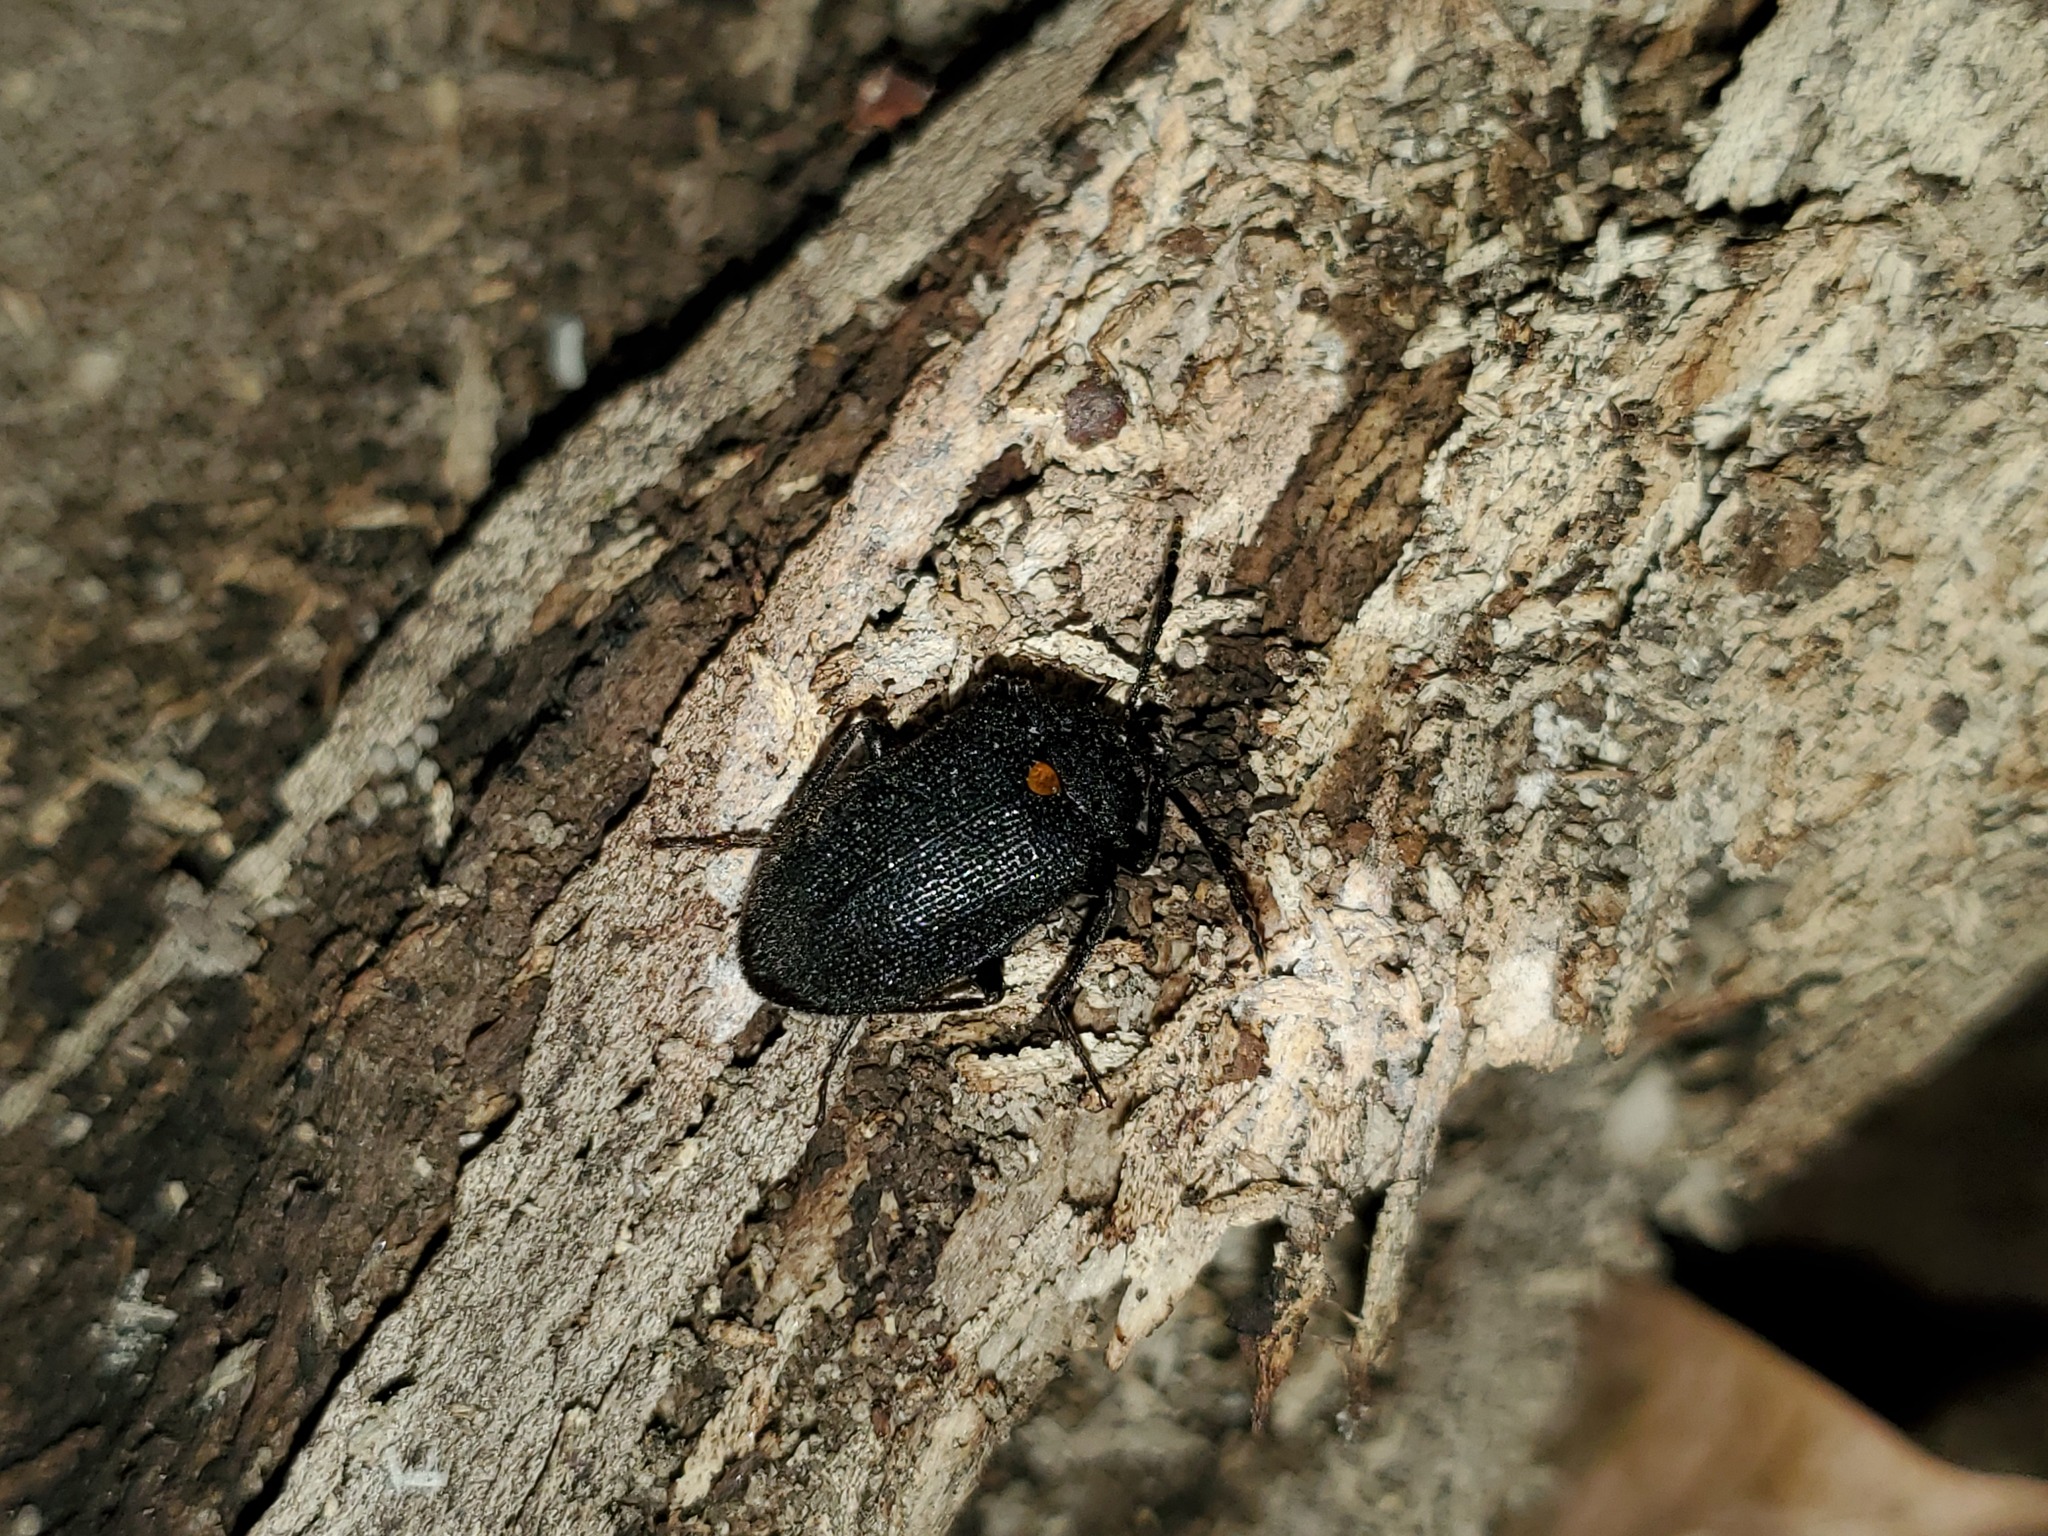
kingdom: Animalia
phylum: Arthropoda
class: Insecta
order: Coleoptera
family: Tetratomidae
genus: Penthe
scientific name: Penthe obliquata
